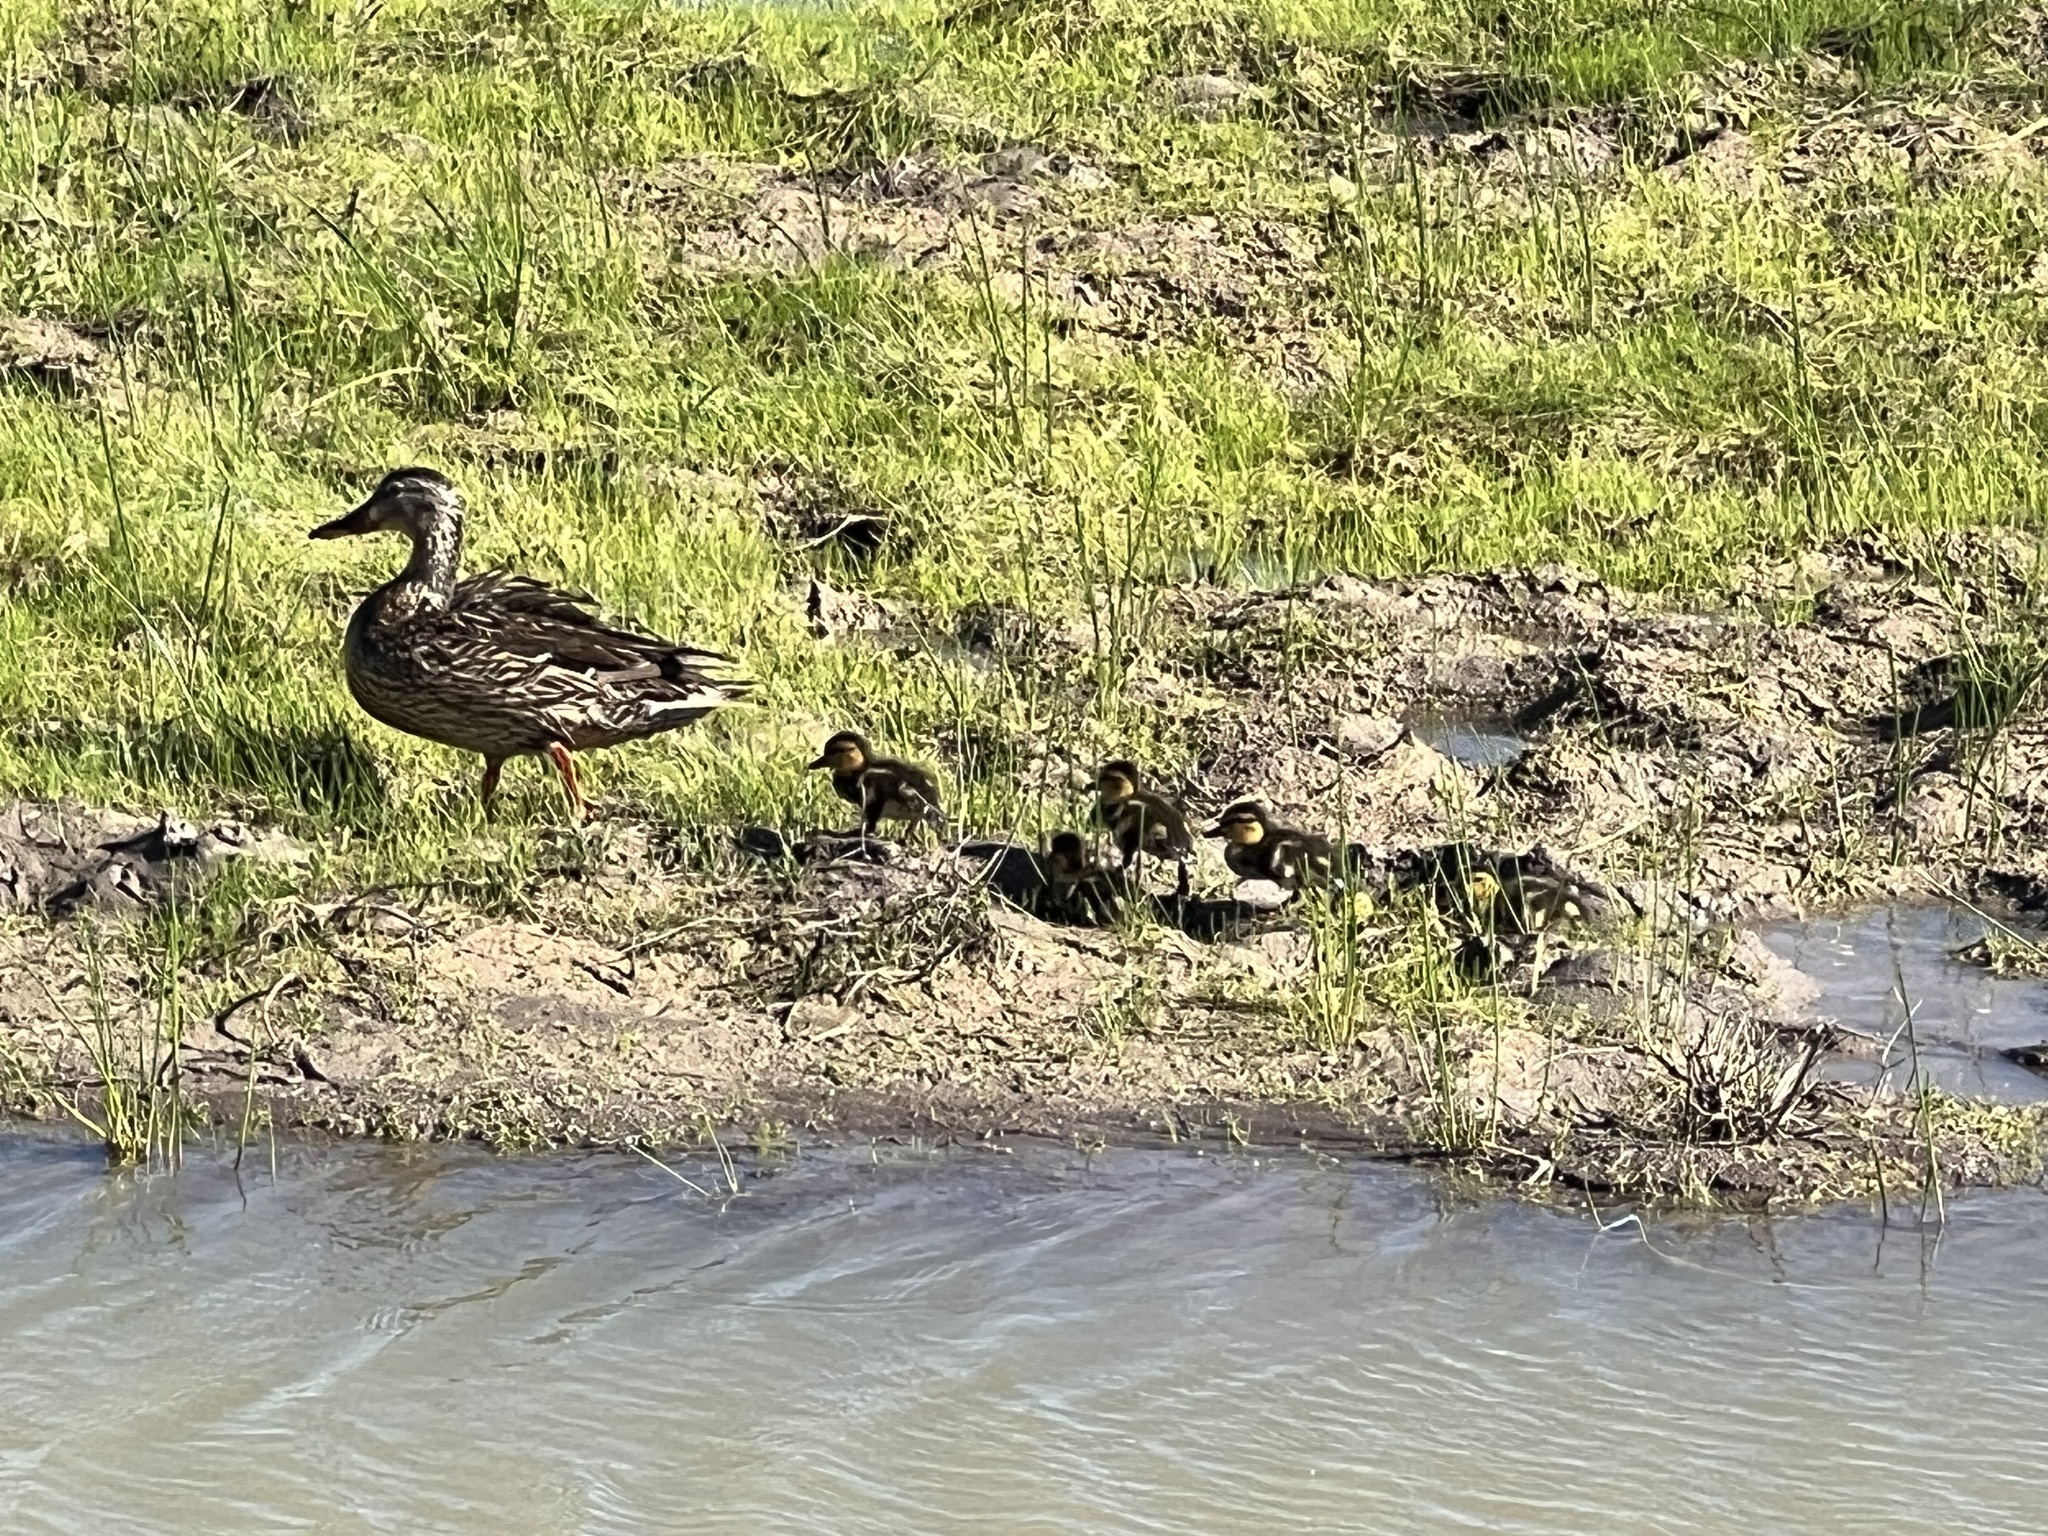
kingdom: Animalia
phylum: Chordata
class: Aves
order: Anseriformes
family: Anatidae
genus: Anas
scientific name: Anas platyrhynchos
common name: Mallard
